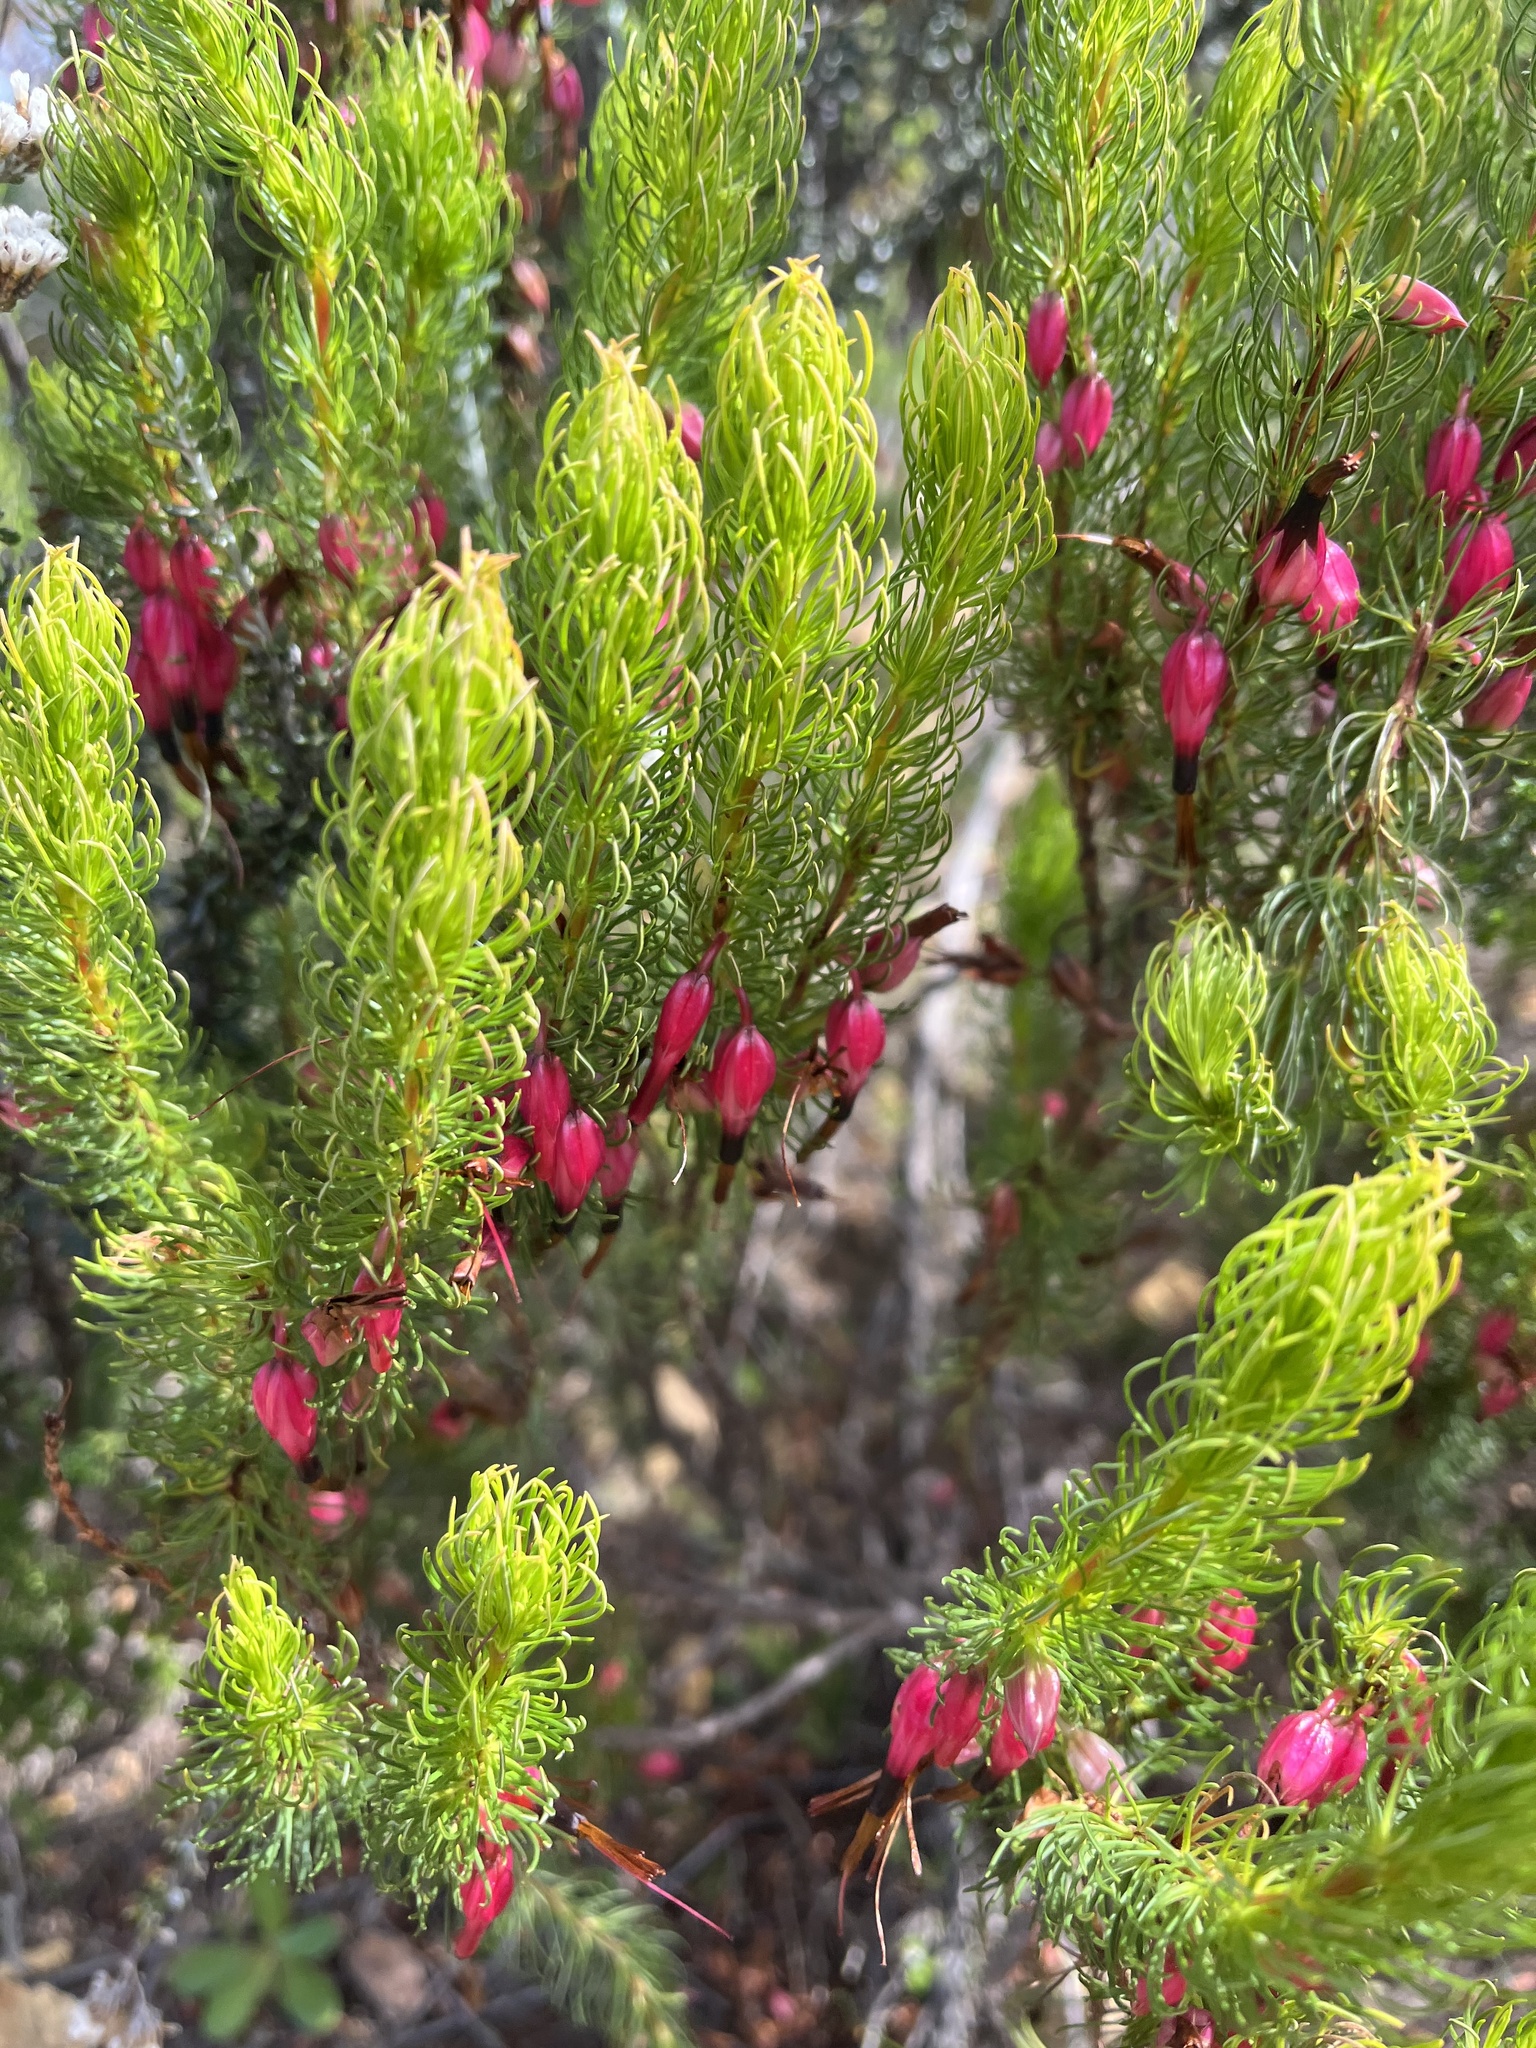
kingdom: Plantae
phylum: Tracheophyta
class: Magnoliopsida
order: Ericales
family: Ericaceae
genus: Erica
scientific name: Erica plukenetii
